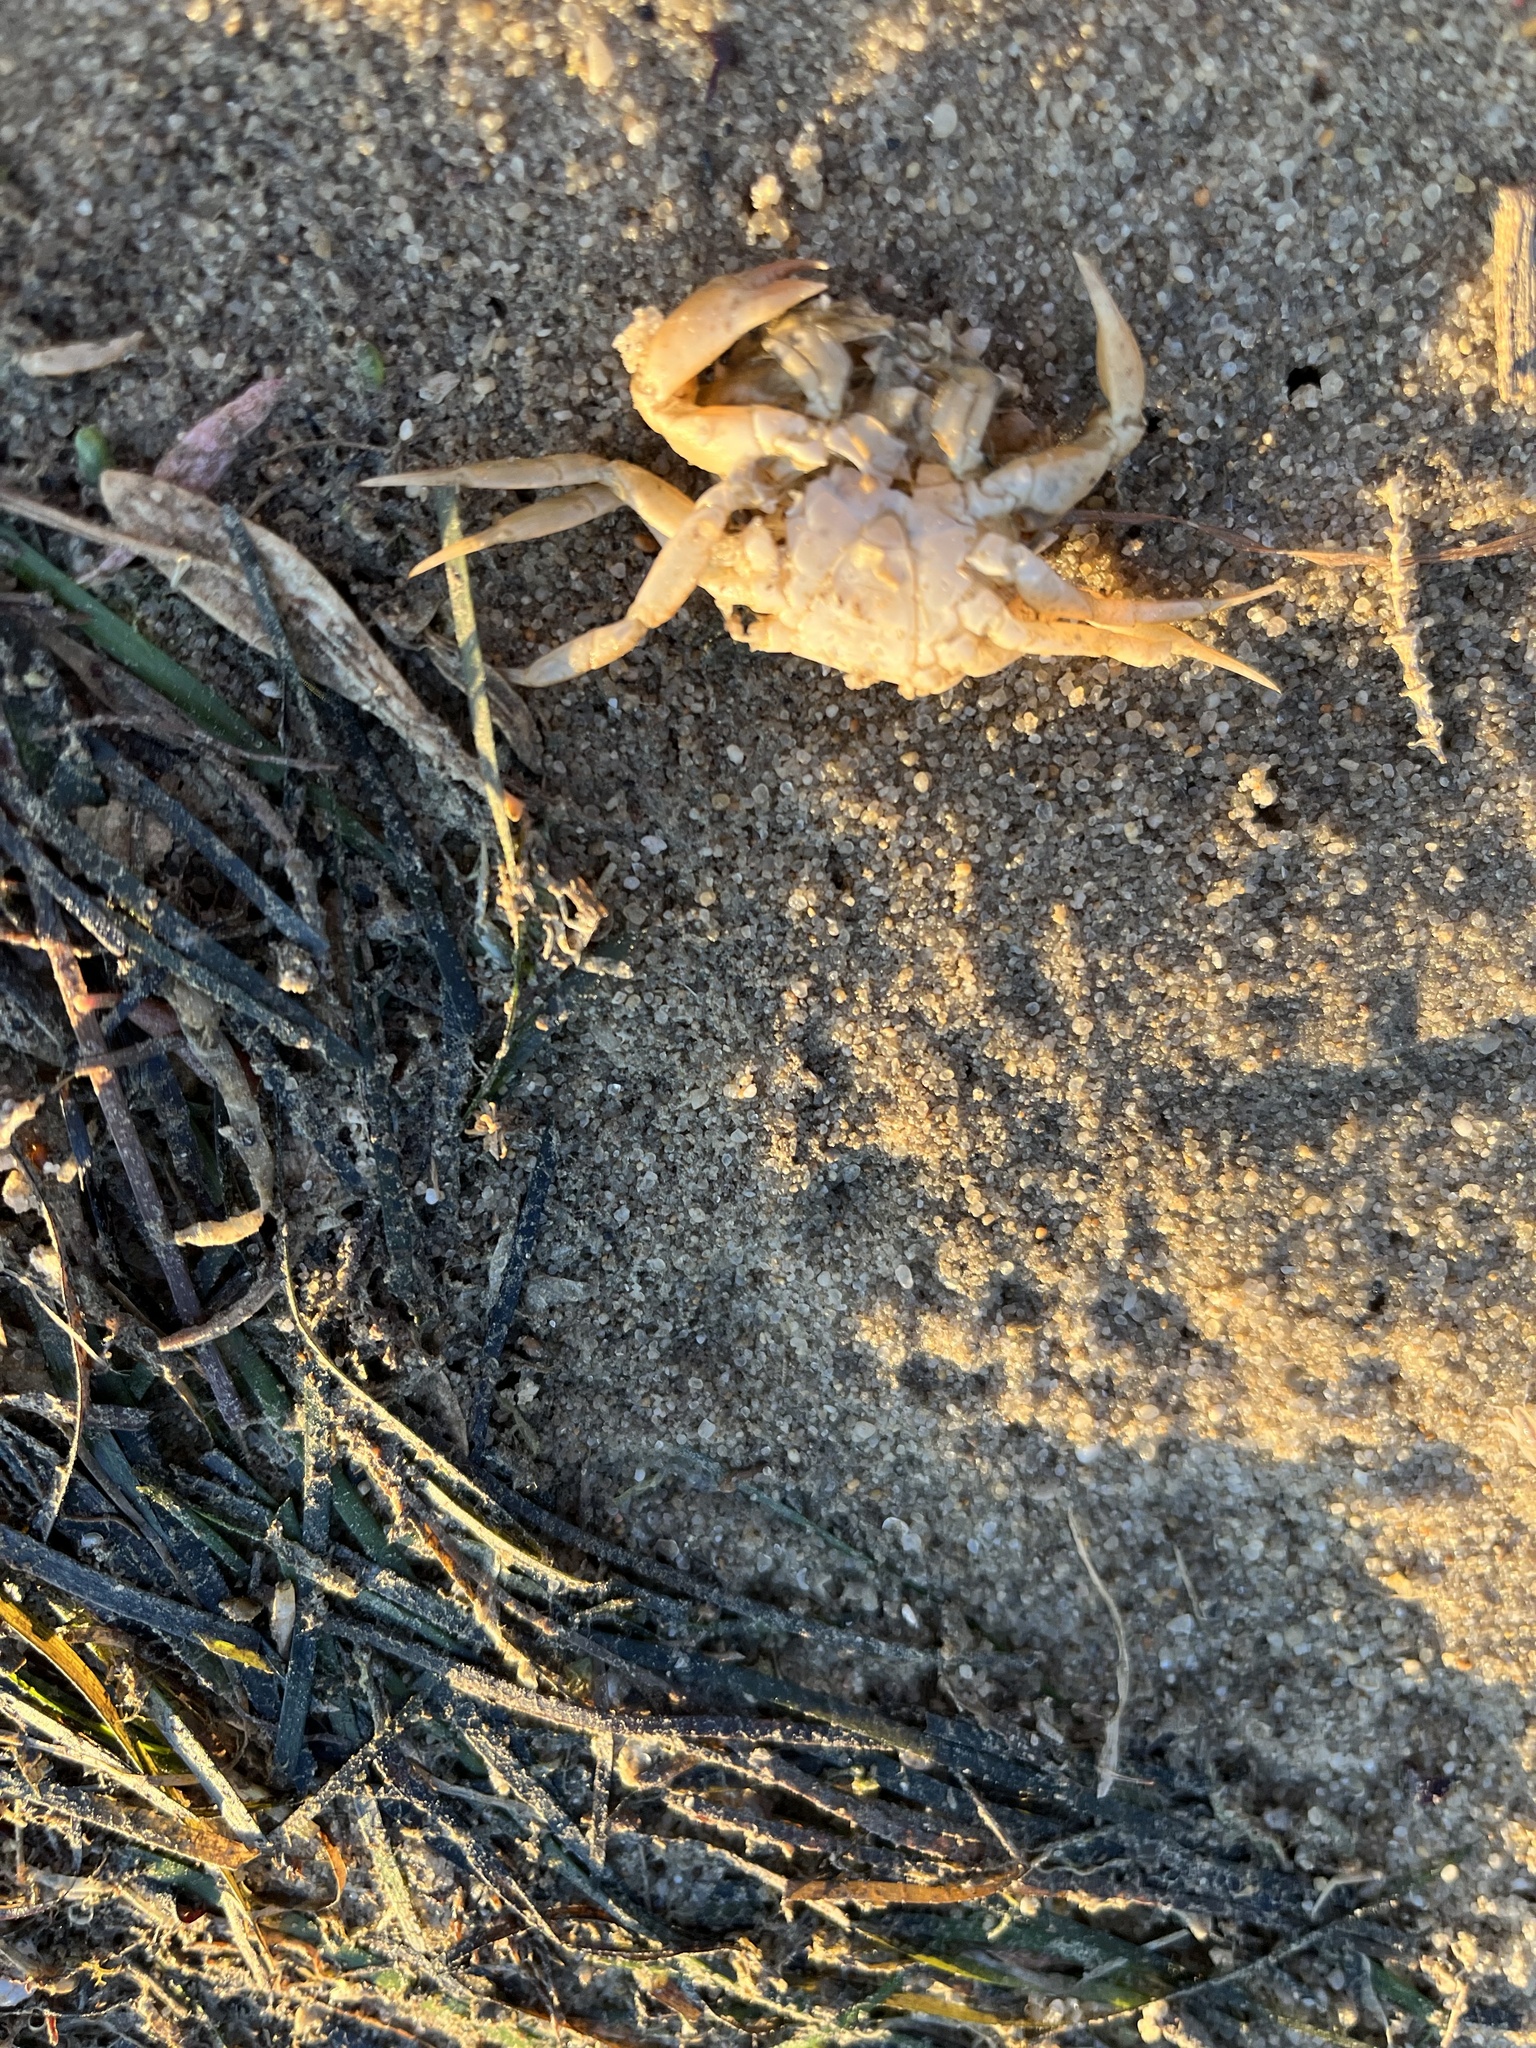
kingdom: Animalia
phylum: Arthropoda
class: Malacostraca
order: Decapoda
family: Carcinidae
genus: Carcinus
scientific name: Carcinus maenas
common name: European green crab
